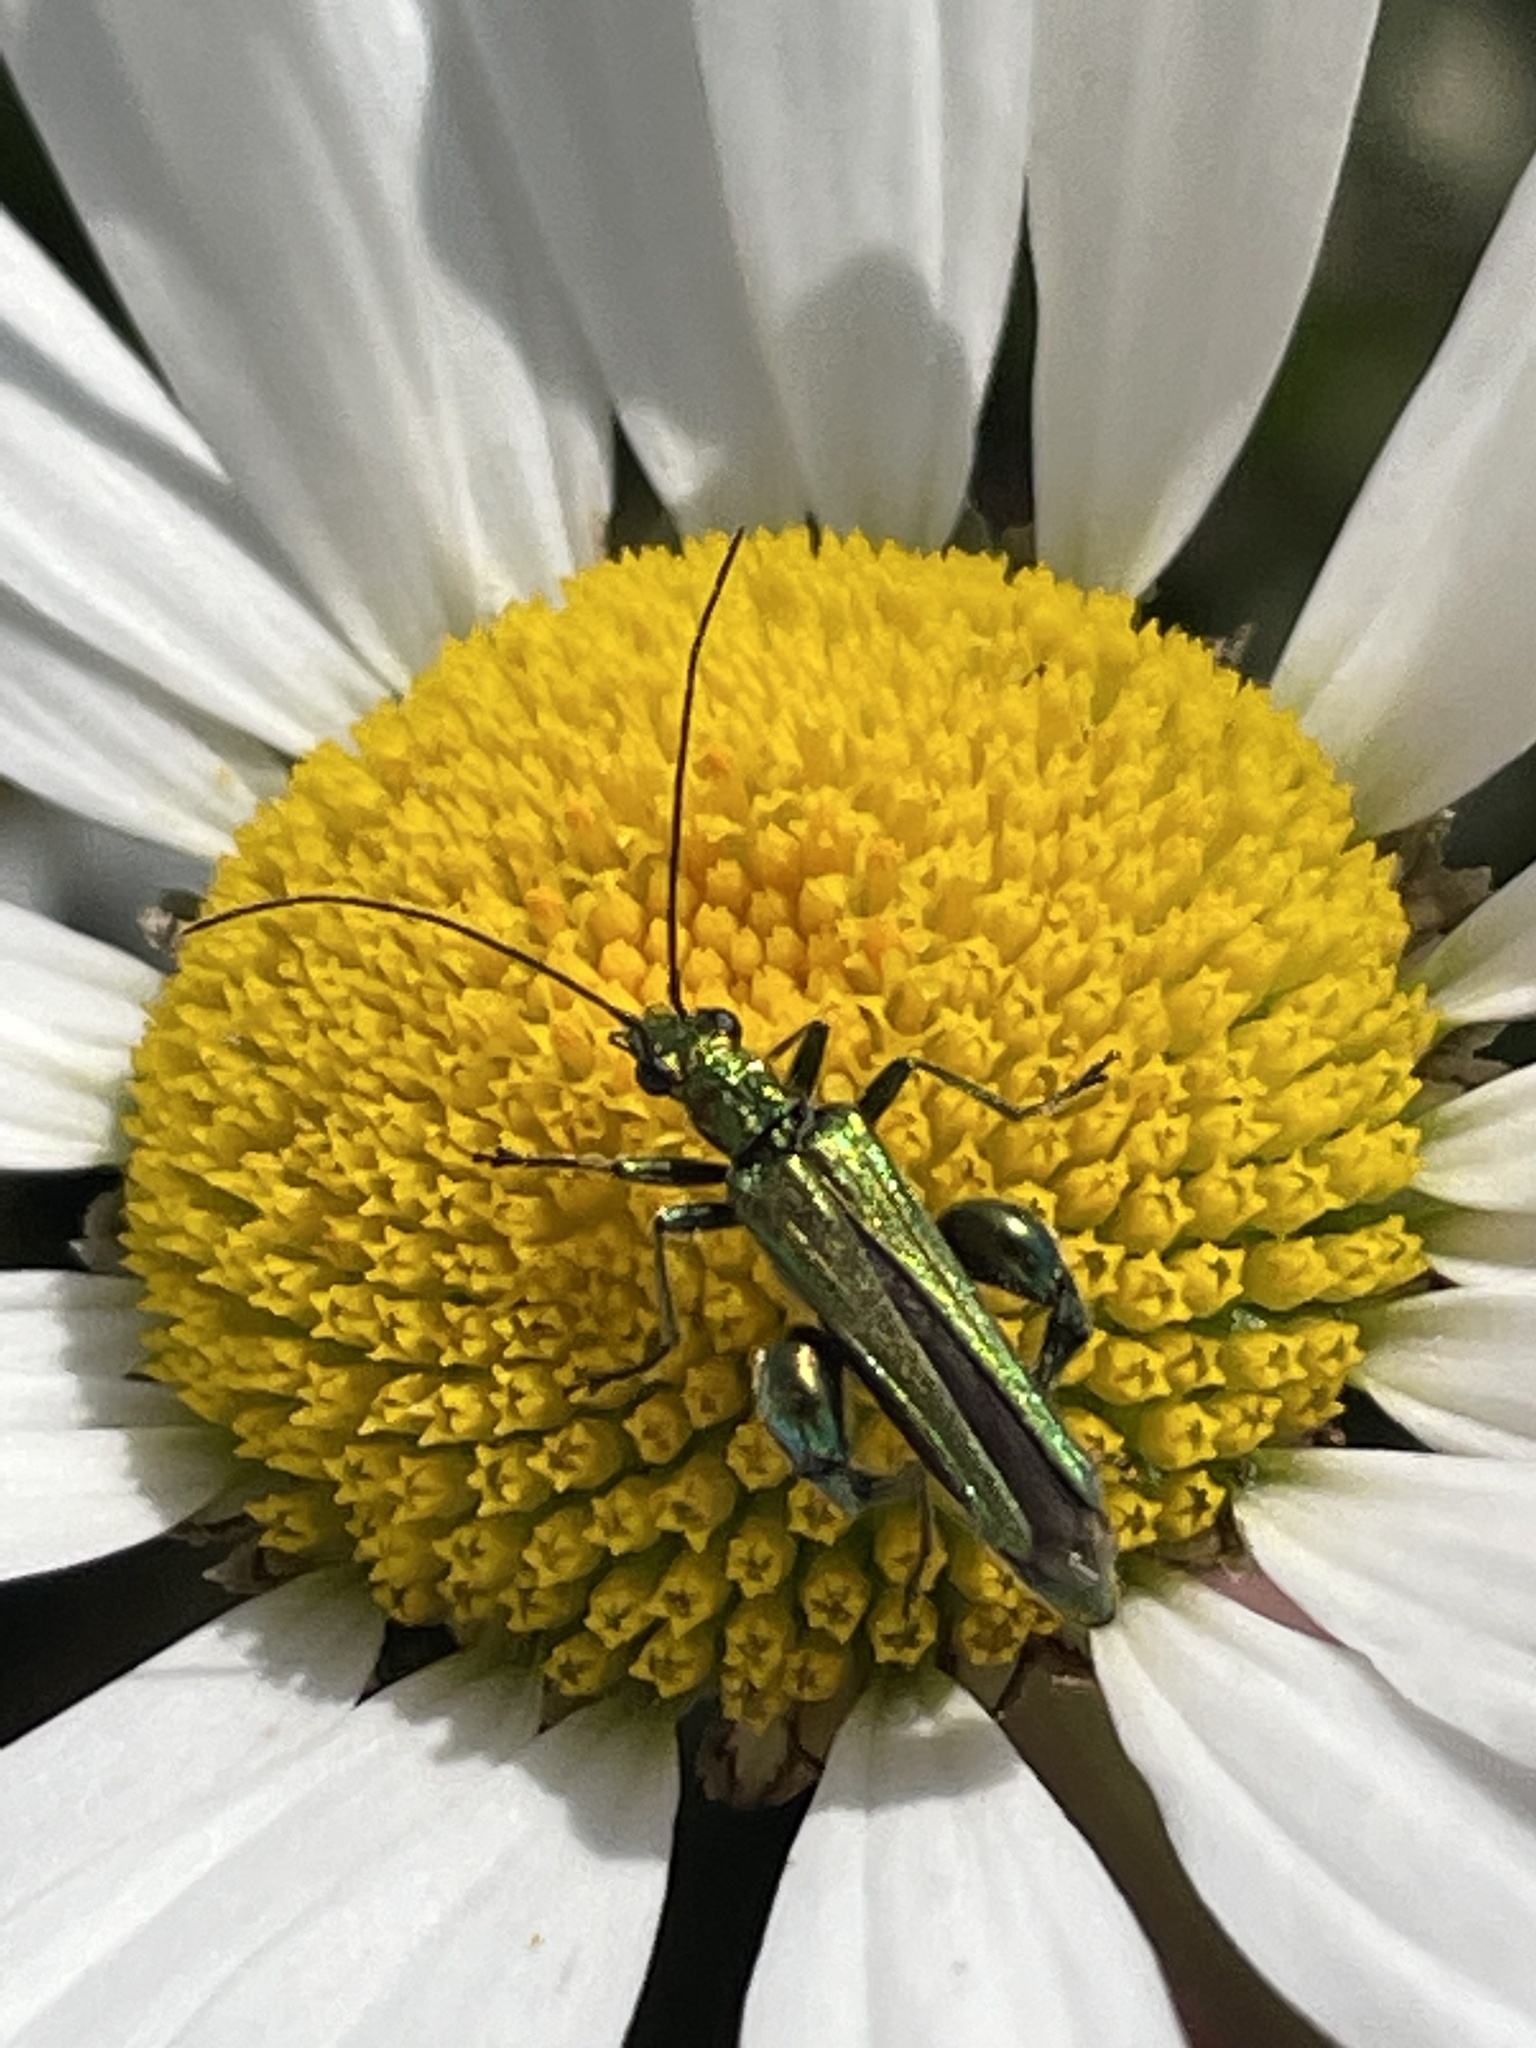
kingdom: Animalia
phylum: Arthropoda
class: Insecta
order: Coleoptera
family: Oedemeridae
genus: Oedemera
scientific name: Oedemera nobilis
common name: Swollen-thighed beetle
